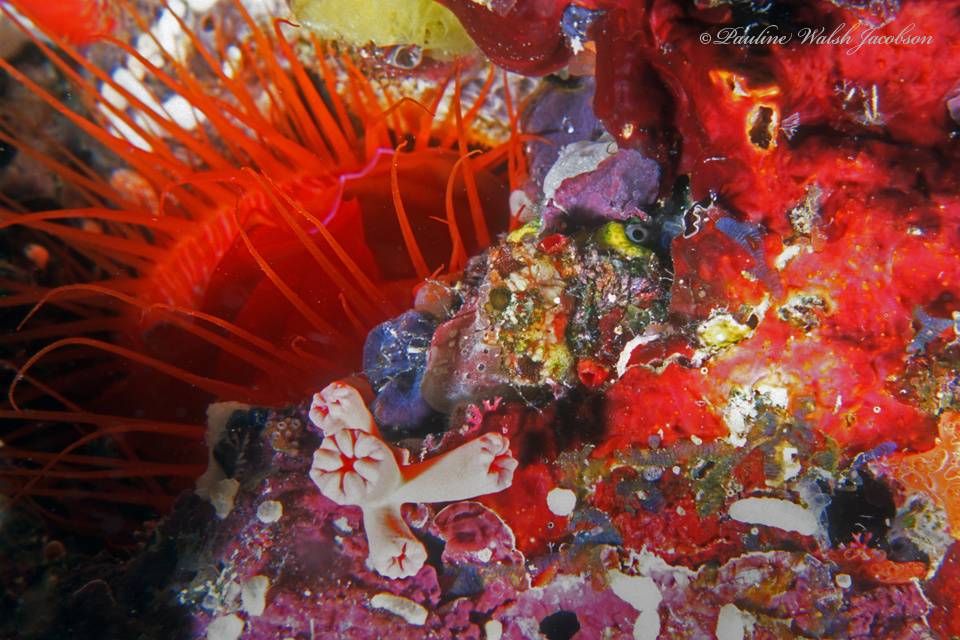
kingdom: Animalia
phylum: Mollusca
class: Bivalvia
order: Limida
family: Limidae
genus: Ctenoides
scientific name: Ctenoides ales
